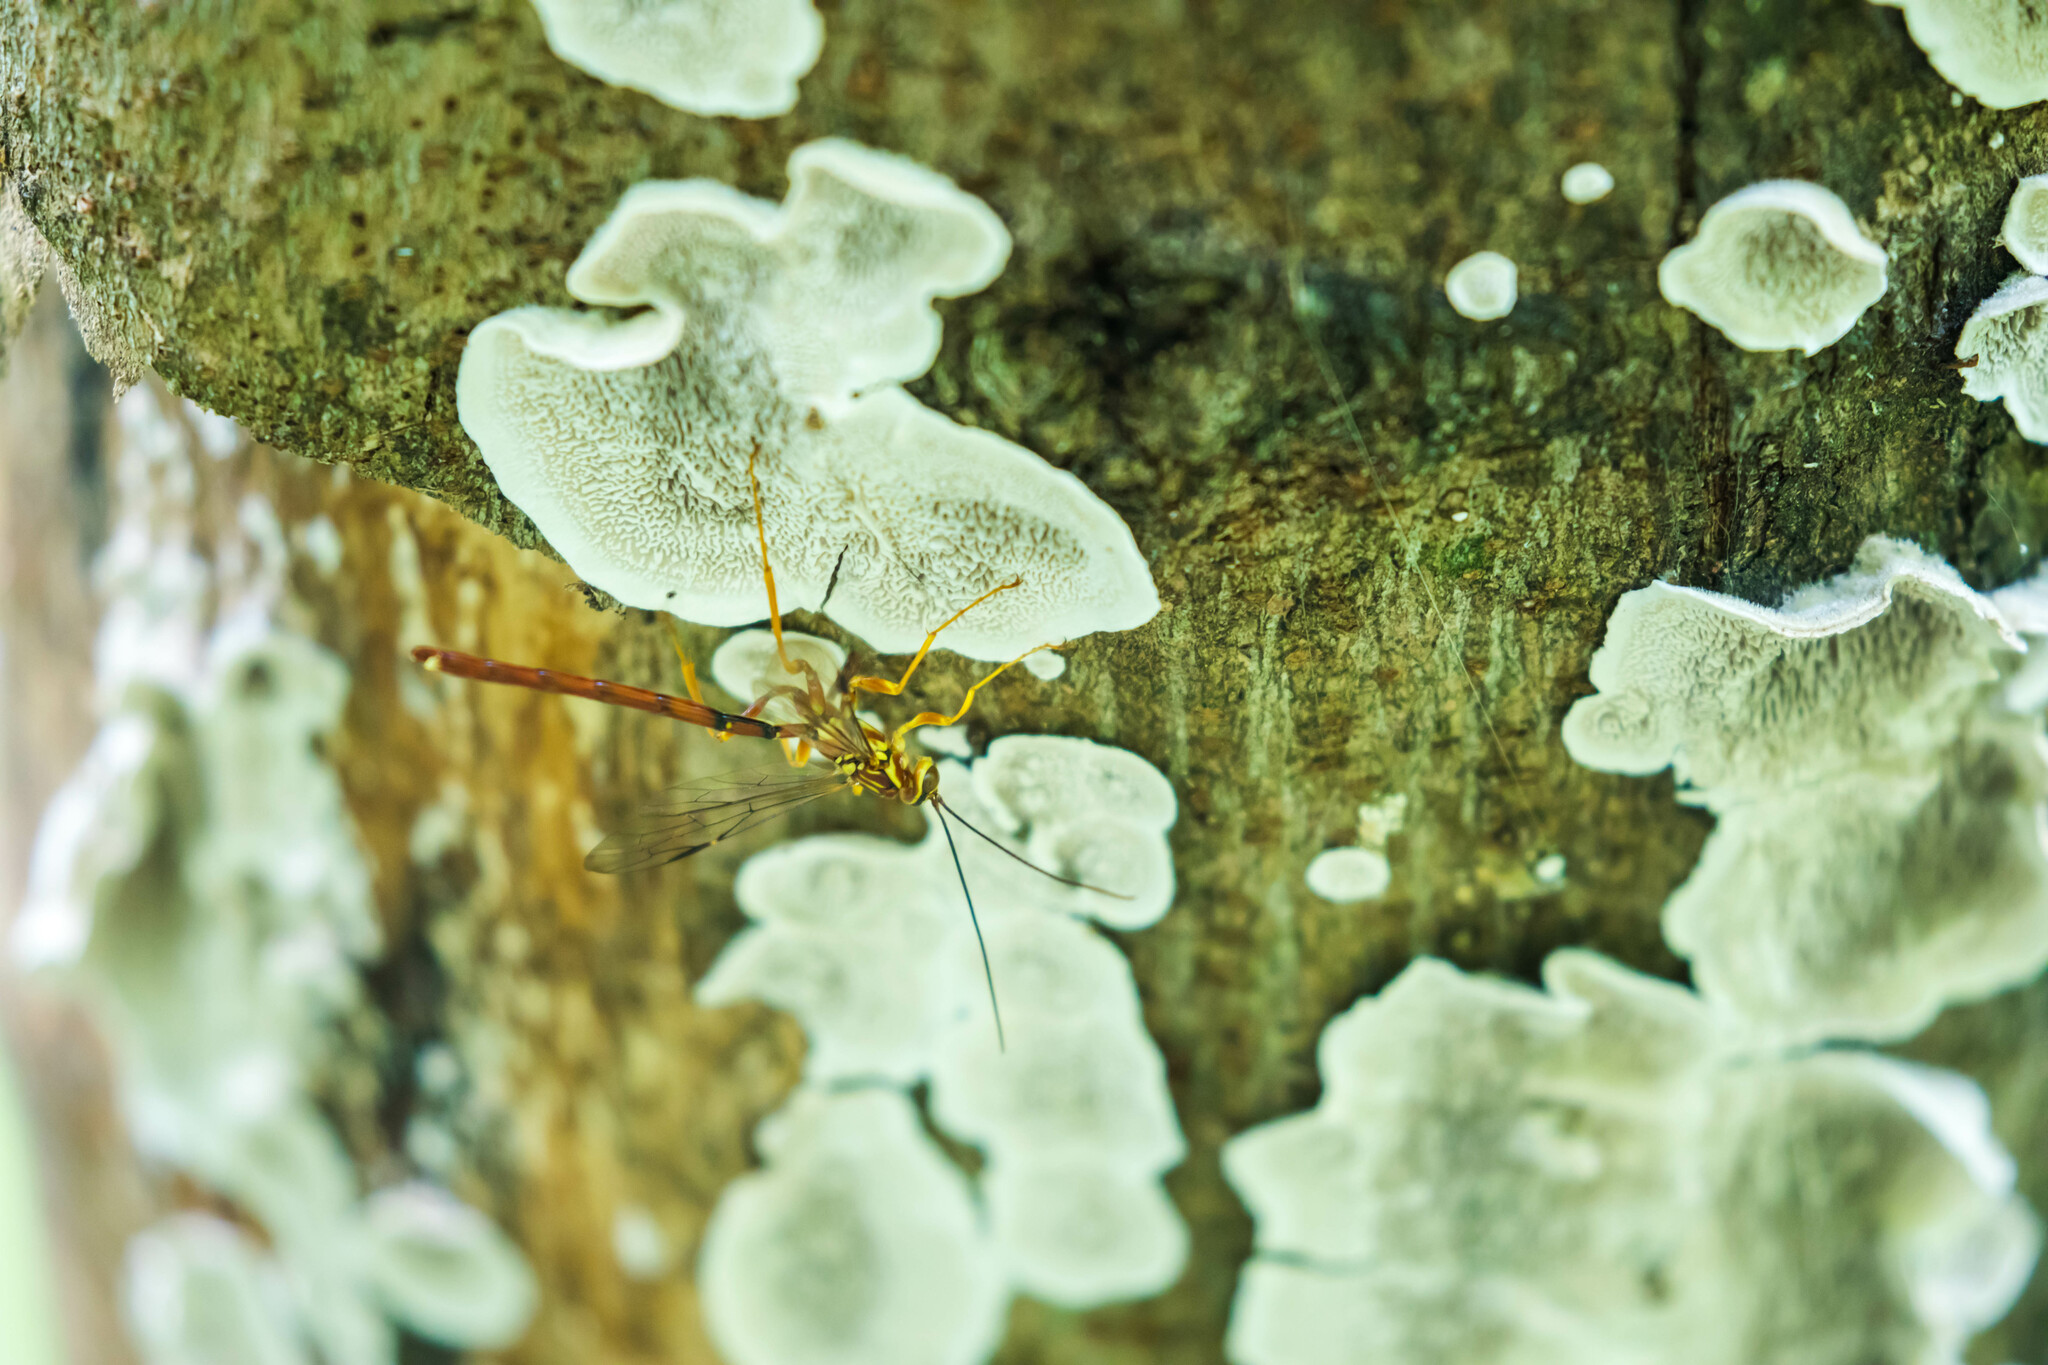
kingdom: Animalia
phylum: Arthropoda
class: Insecta
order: Hymenoptera
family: Ichneumonidae
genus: Megarhyssa
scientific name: Megarhyssa greenei
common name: Greene's giant ichneumonid wasp
